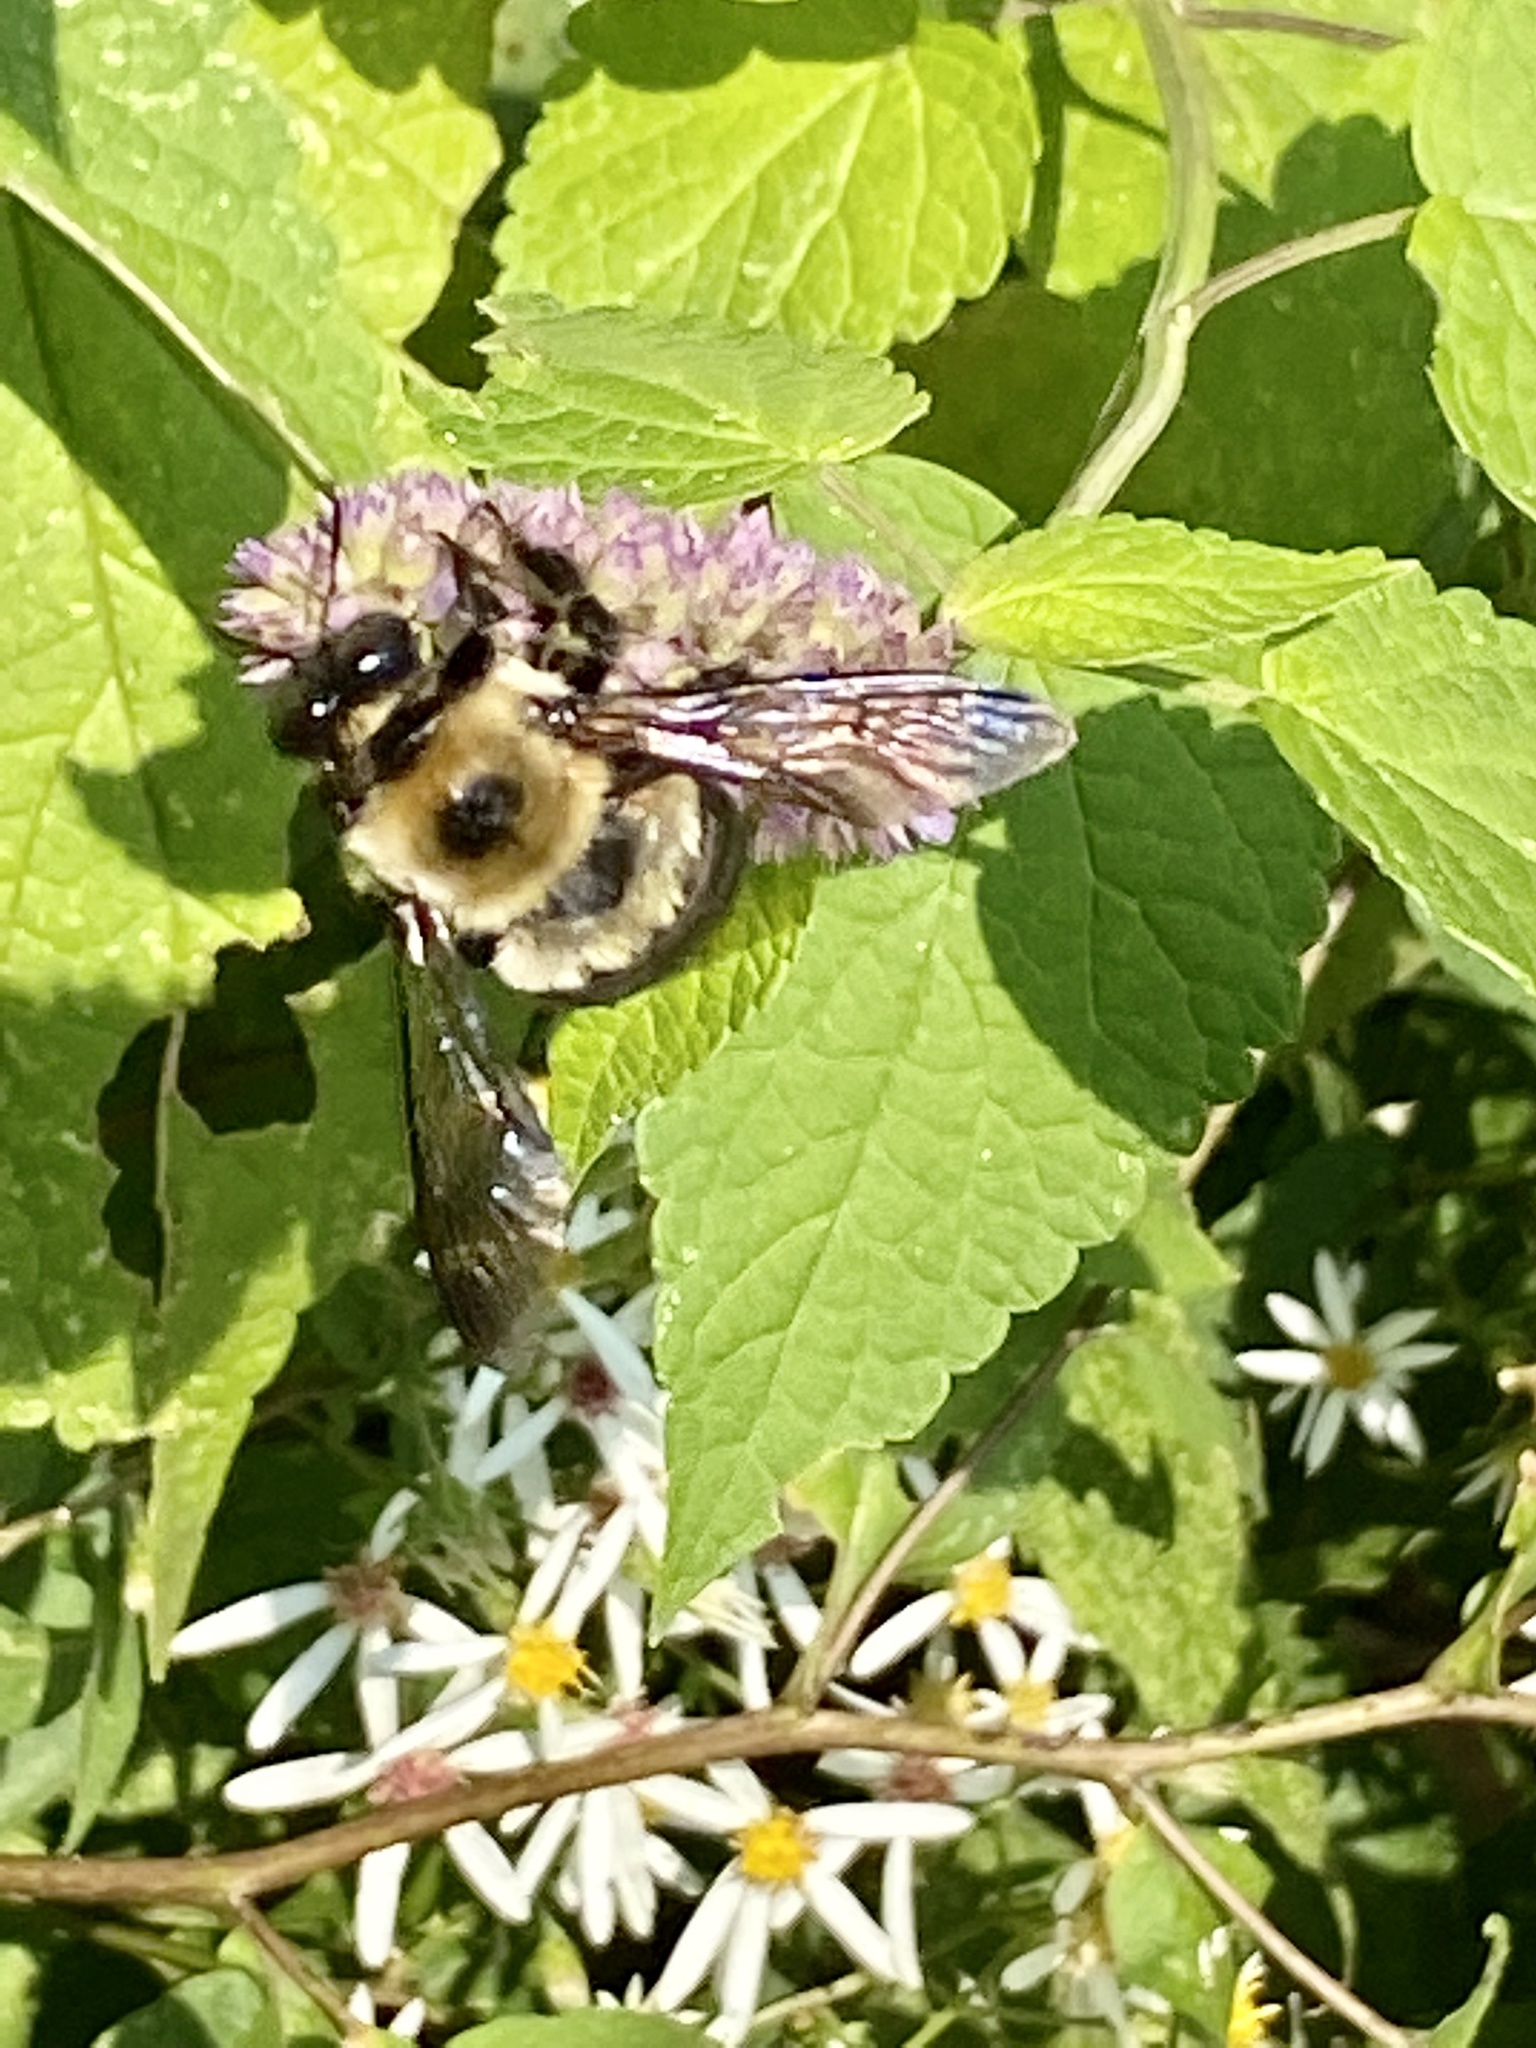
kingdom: Animalia
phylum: Arthropoda
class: Insecta
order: Hymenoptera
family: Apidae
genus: Xylocopa
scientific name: Xylocopa virginica
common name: Carpenter bee
